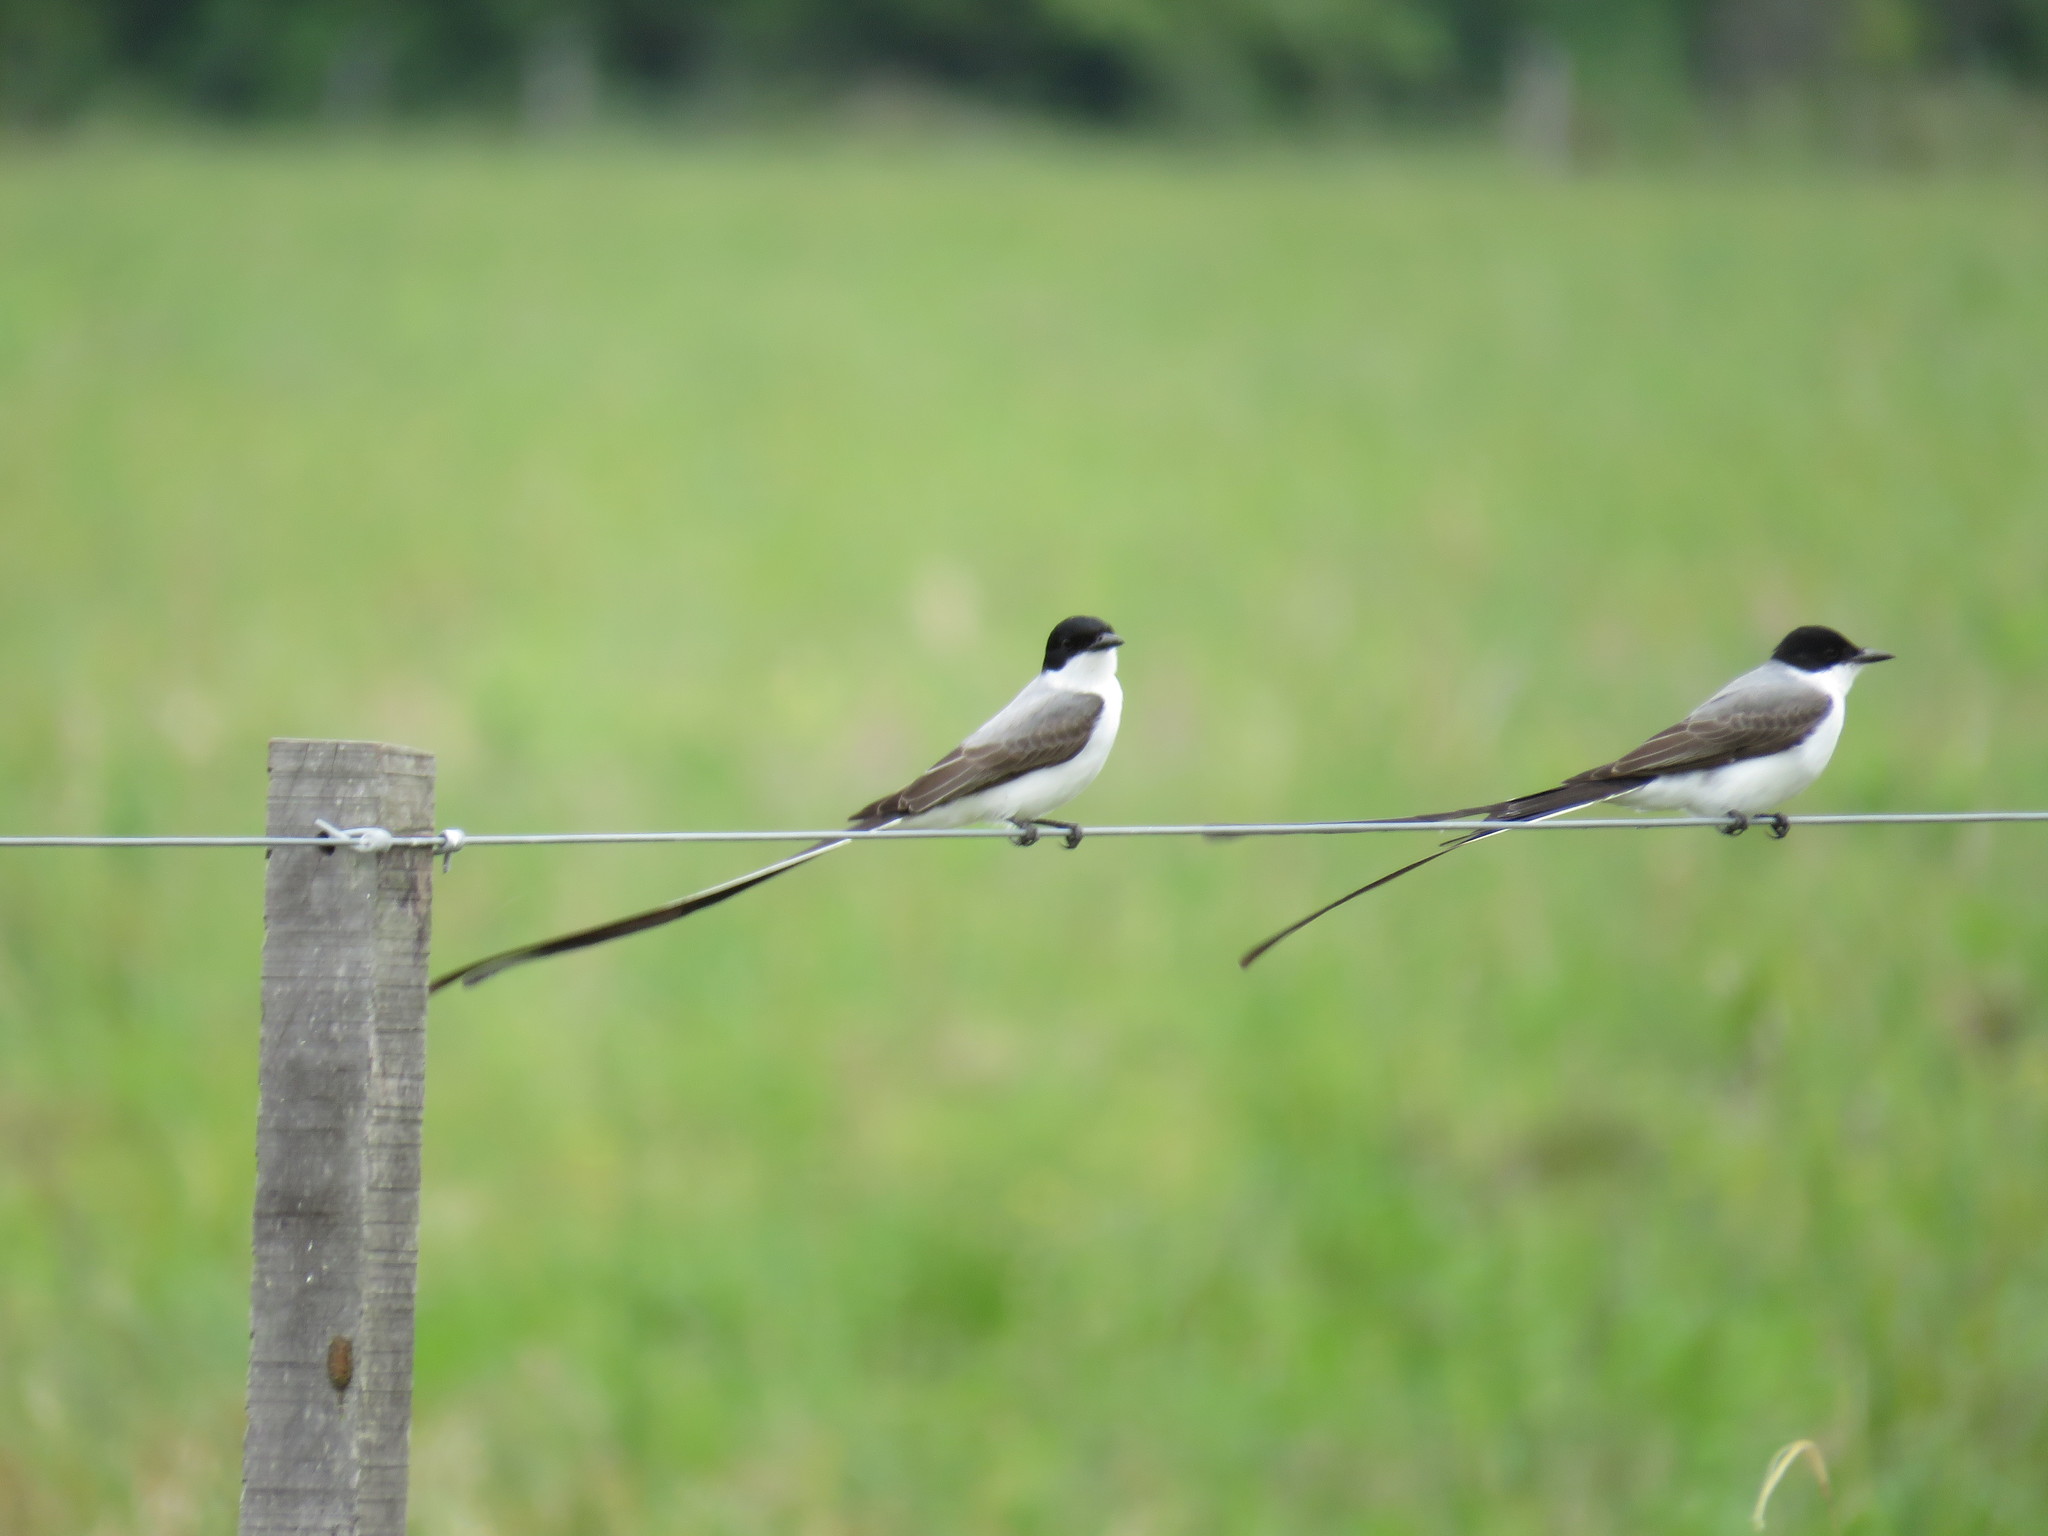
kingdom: Animalia
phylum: Chordata
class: Aves
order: Passeriformes
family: Tyrannidae
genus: Tyrannus
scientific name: Tyrannus savana
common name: Fork-tailed flycatcher
